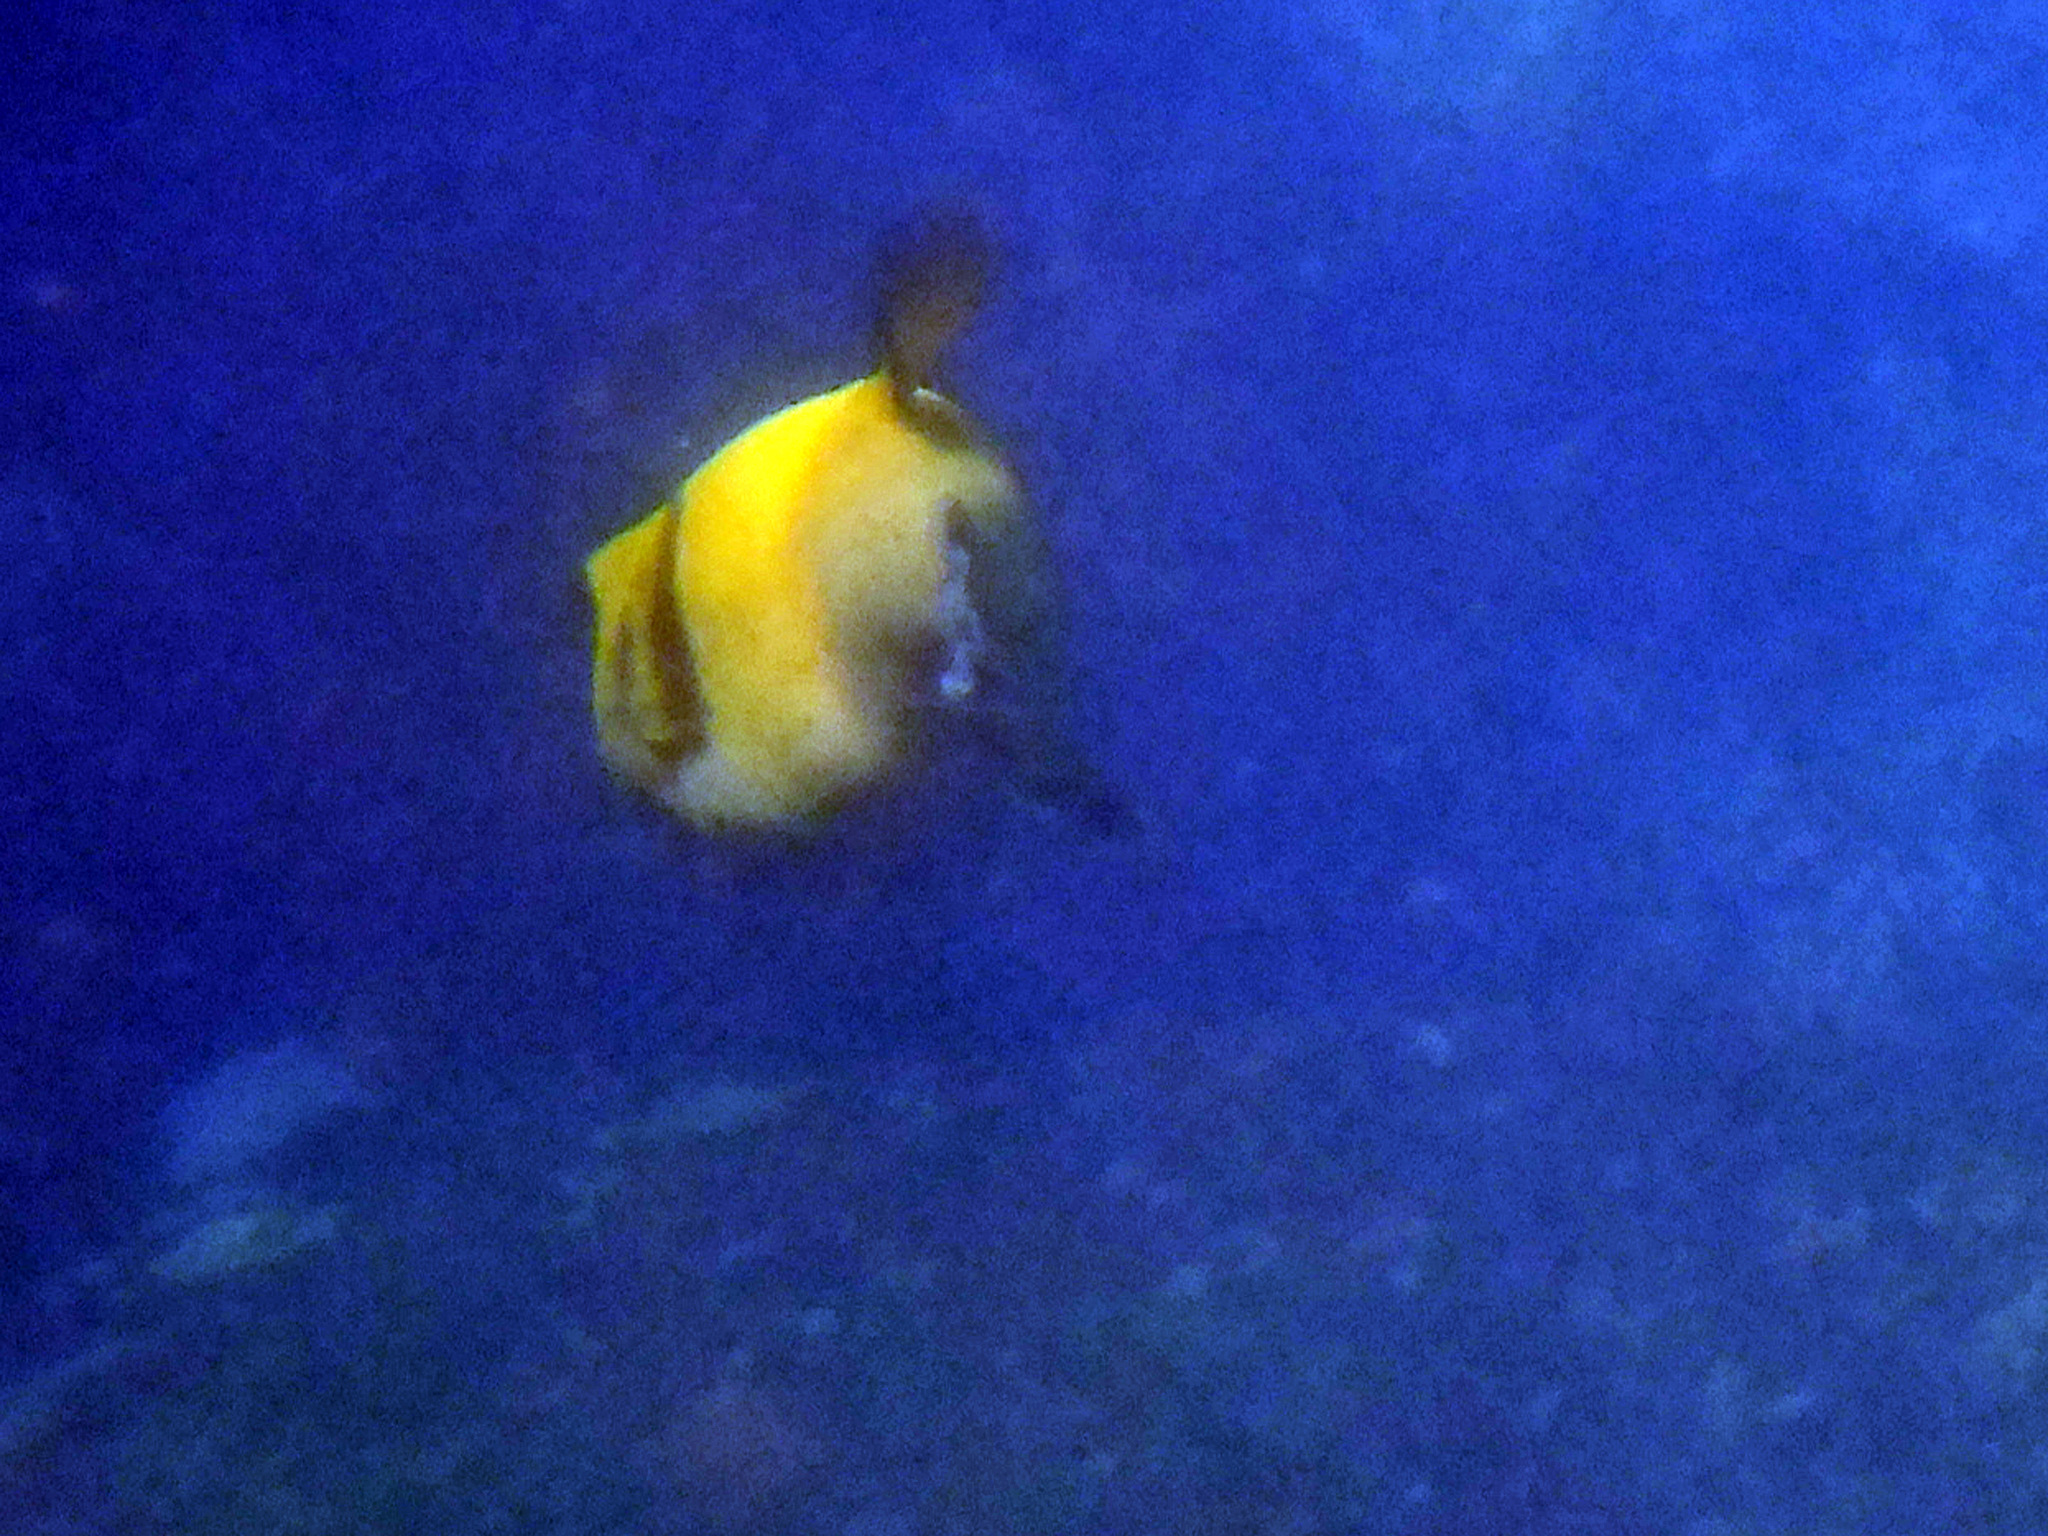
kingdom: Animalia
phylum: Chordata
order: Tetraodontiformes
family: Tetraodontidae
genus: Arothron
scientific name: Arothron meleagris
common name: Guinea-fowl pufferfish
